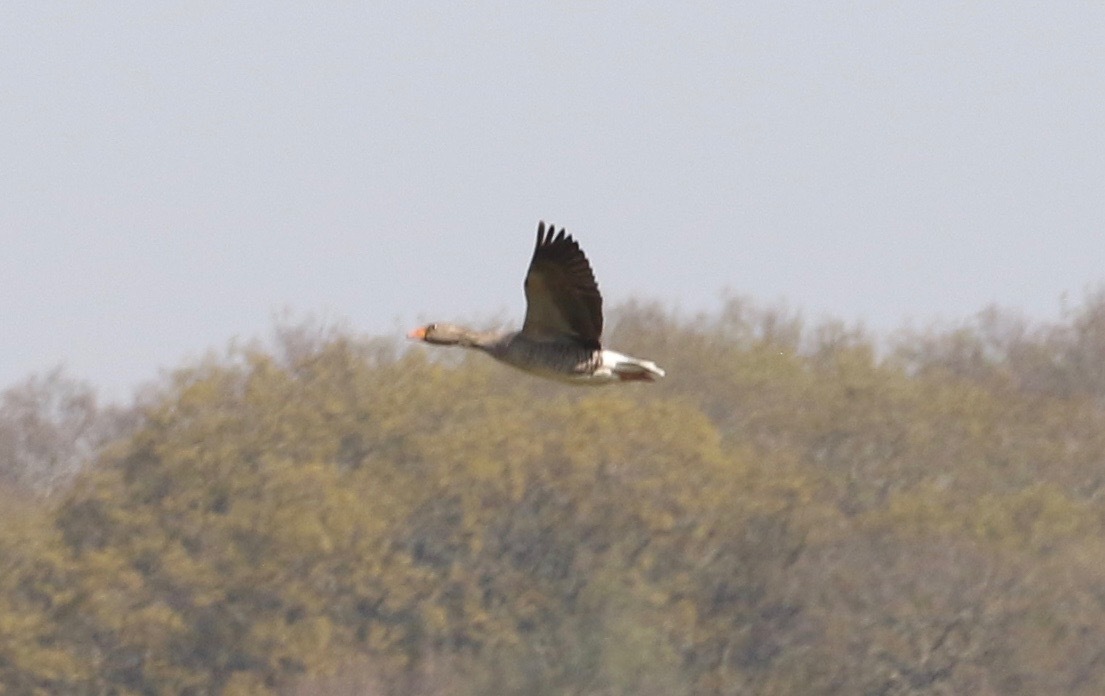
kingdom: Animalia
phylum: Chordata
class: Aves
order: Anseriformes
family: Anatidae
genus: Anser
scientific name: Anser anser
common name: Greylag goose
